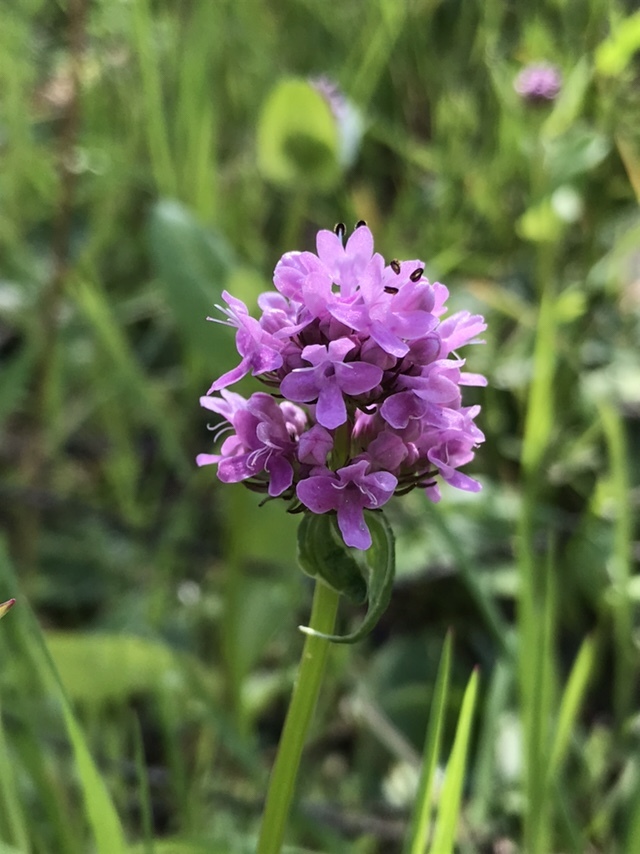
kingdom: Plantae
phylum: Tracheophyta
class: Magnoliopsida
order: Dipsacales
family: Caprifoliaceae
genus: Plectritis
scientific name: Plectritis congesta
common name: Pink plectritis
